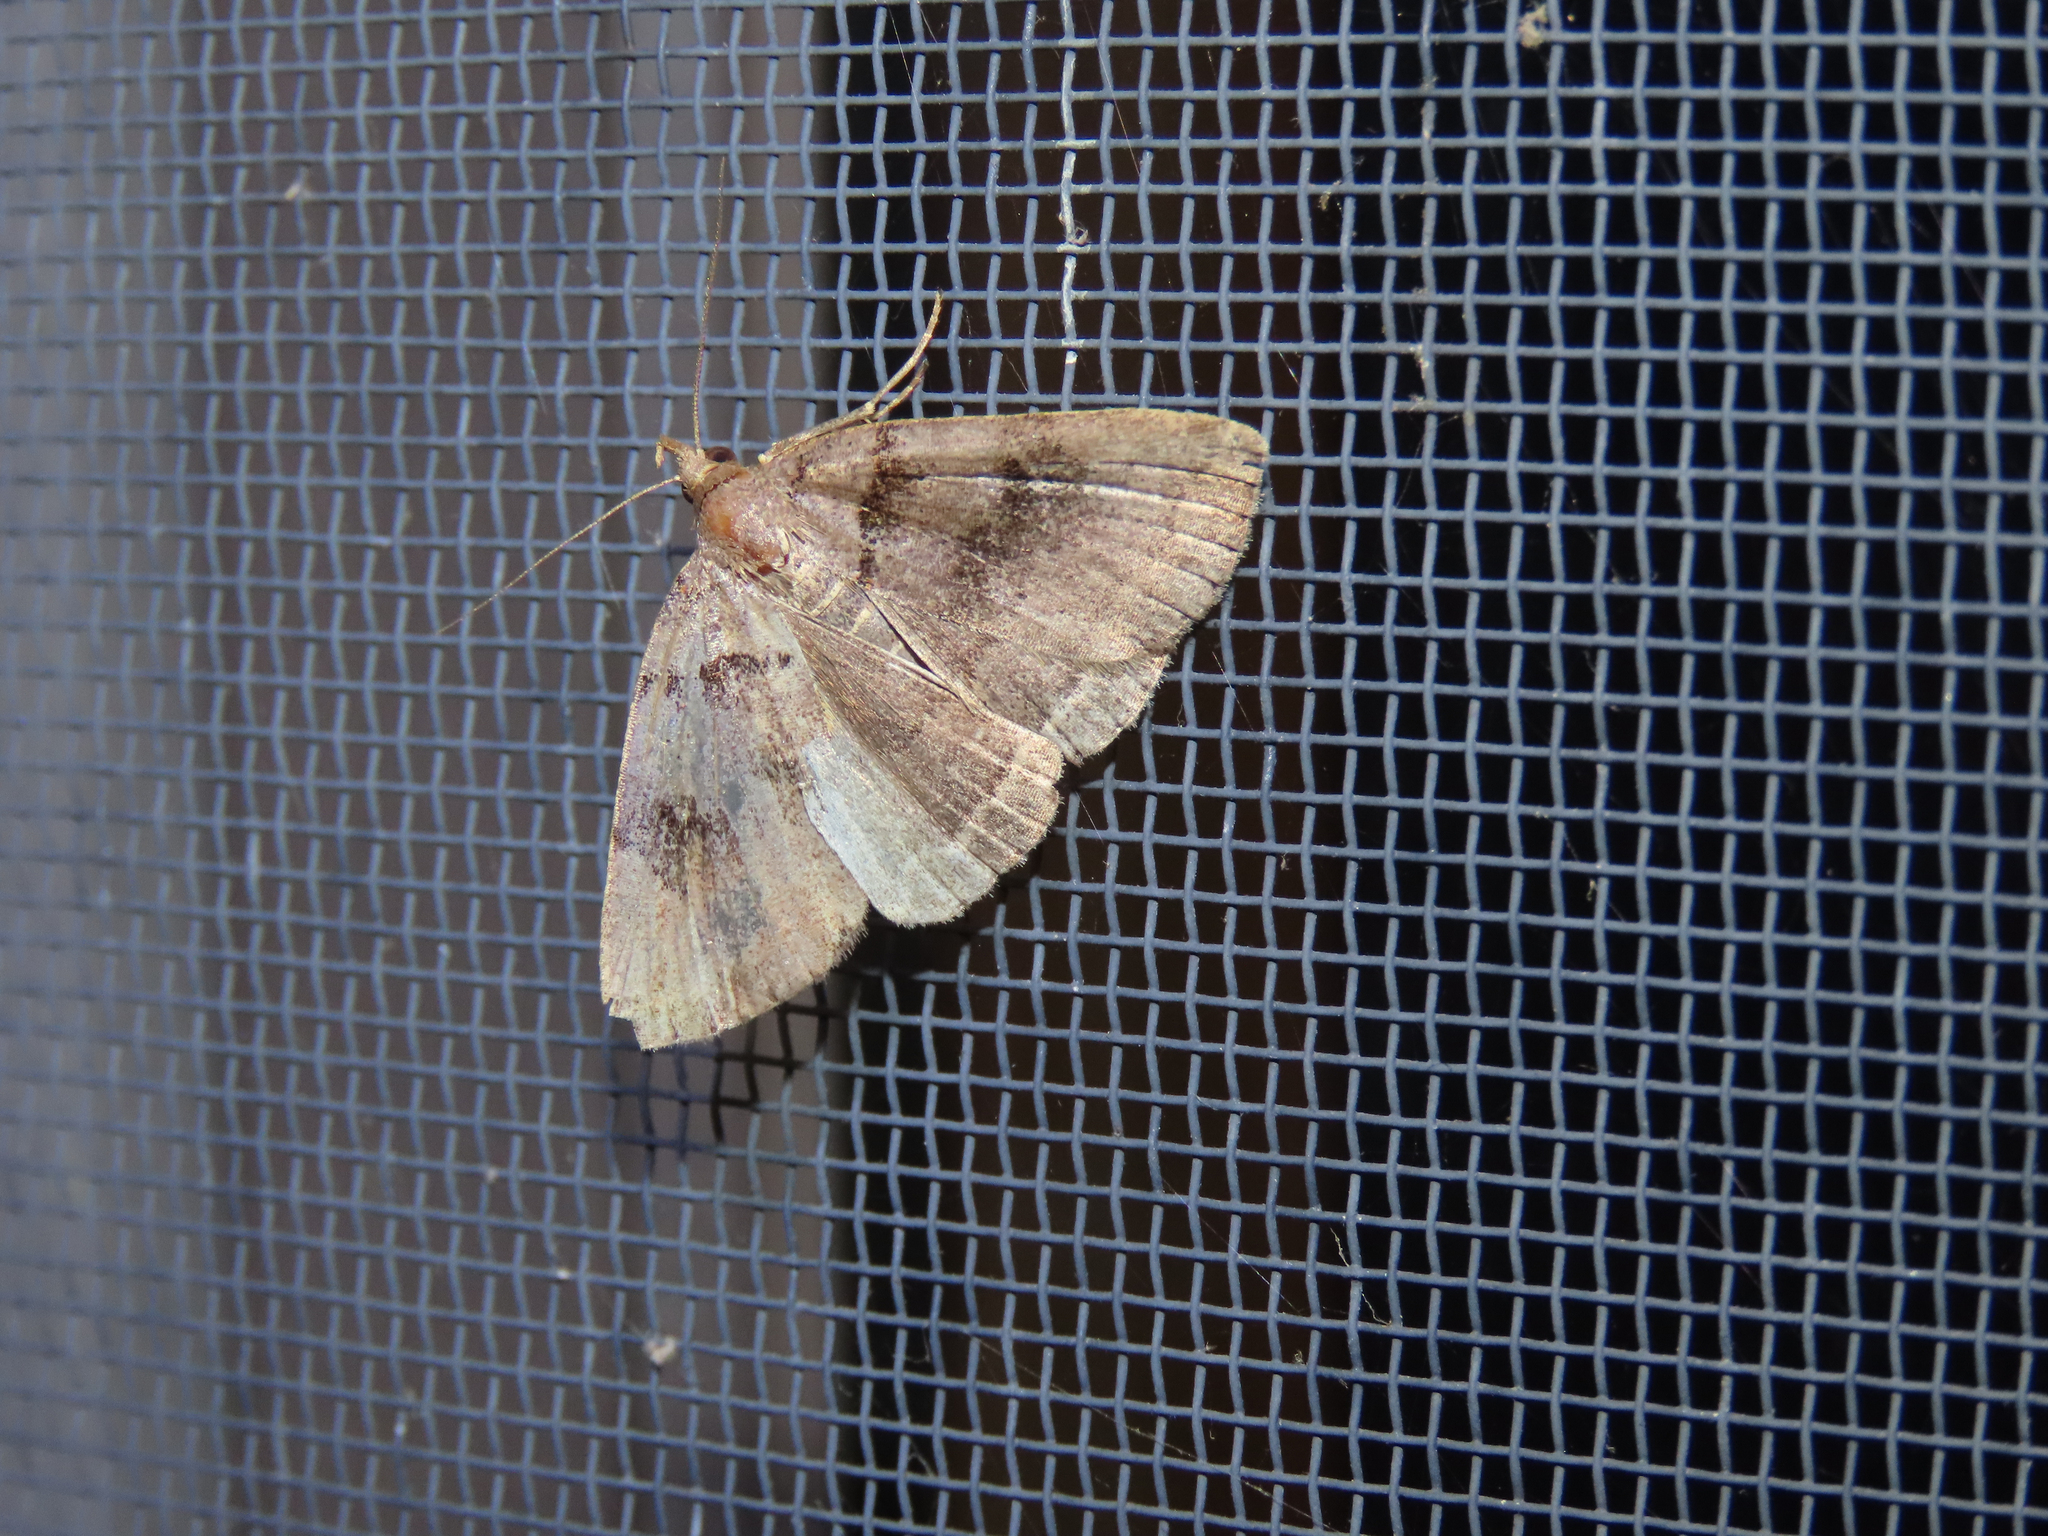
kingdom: Animalia
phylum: Arthropoda
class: Insecta
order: Lepidoptera
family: Erebidae
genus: Zanclognatha
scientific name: Zanclognatha laevigata
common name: Variable fan-foot
